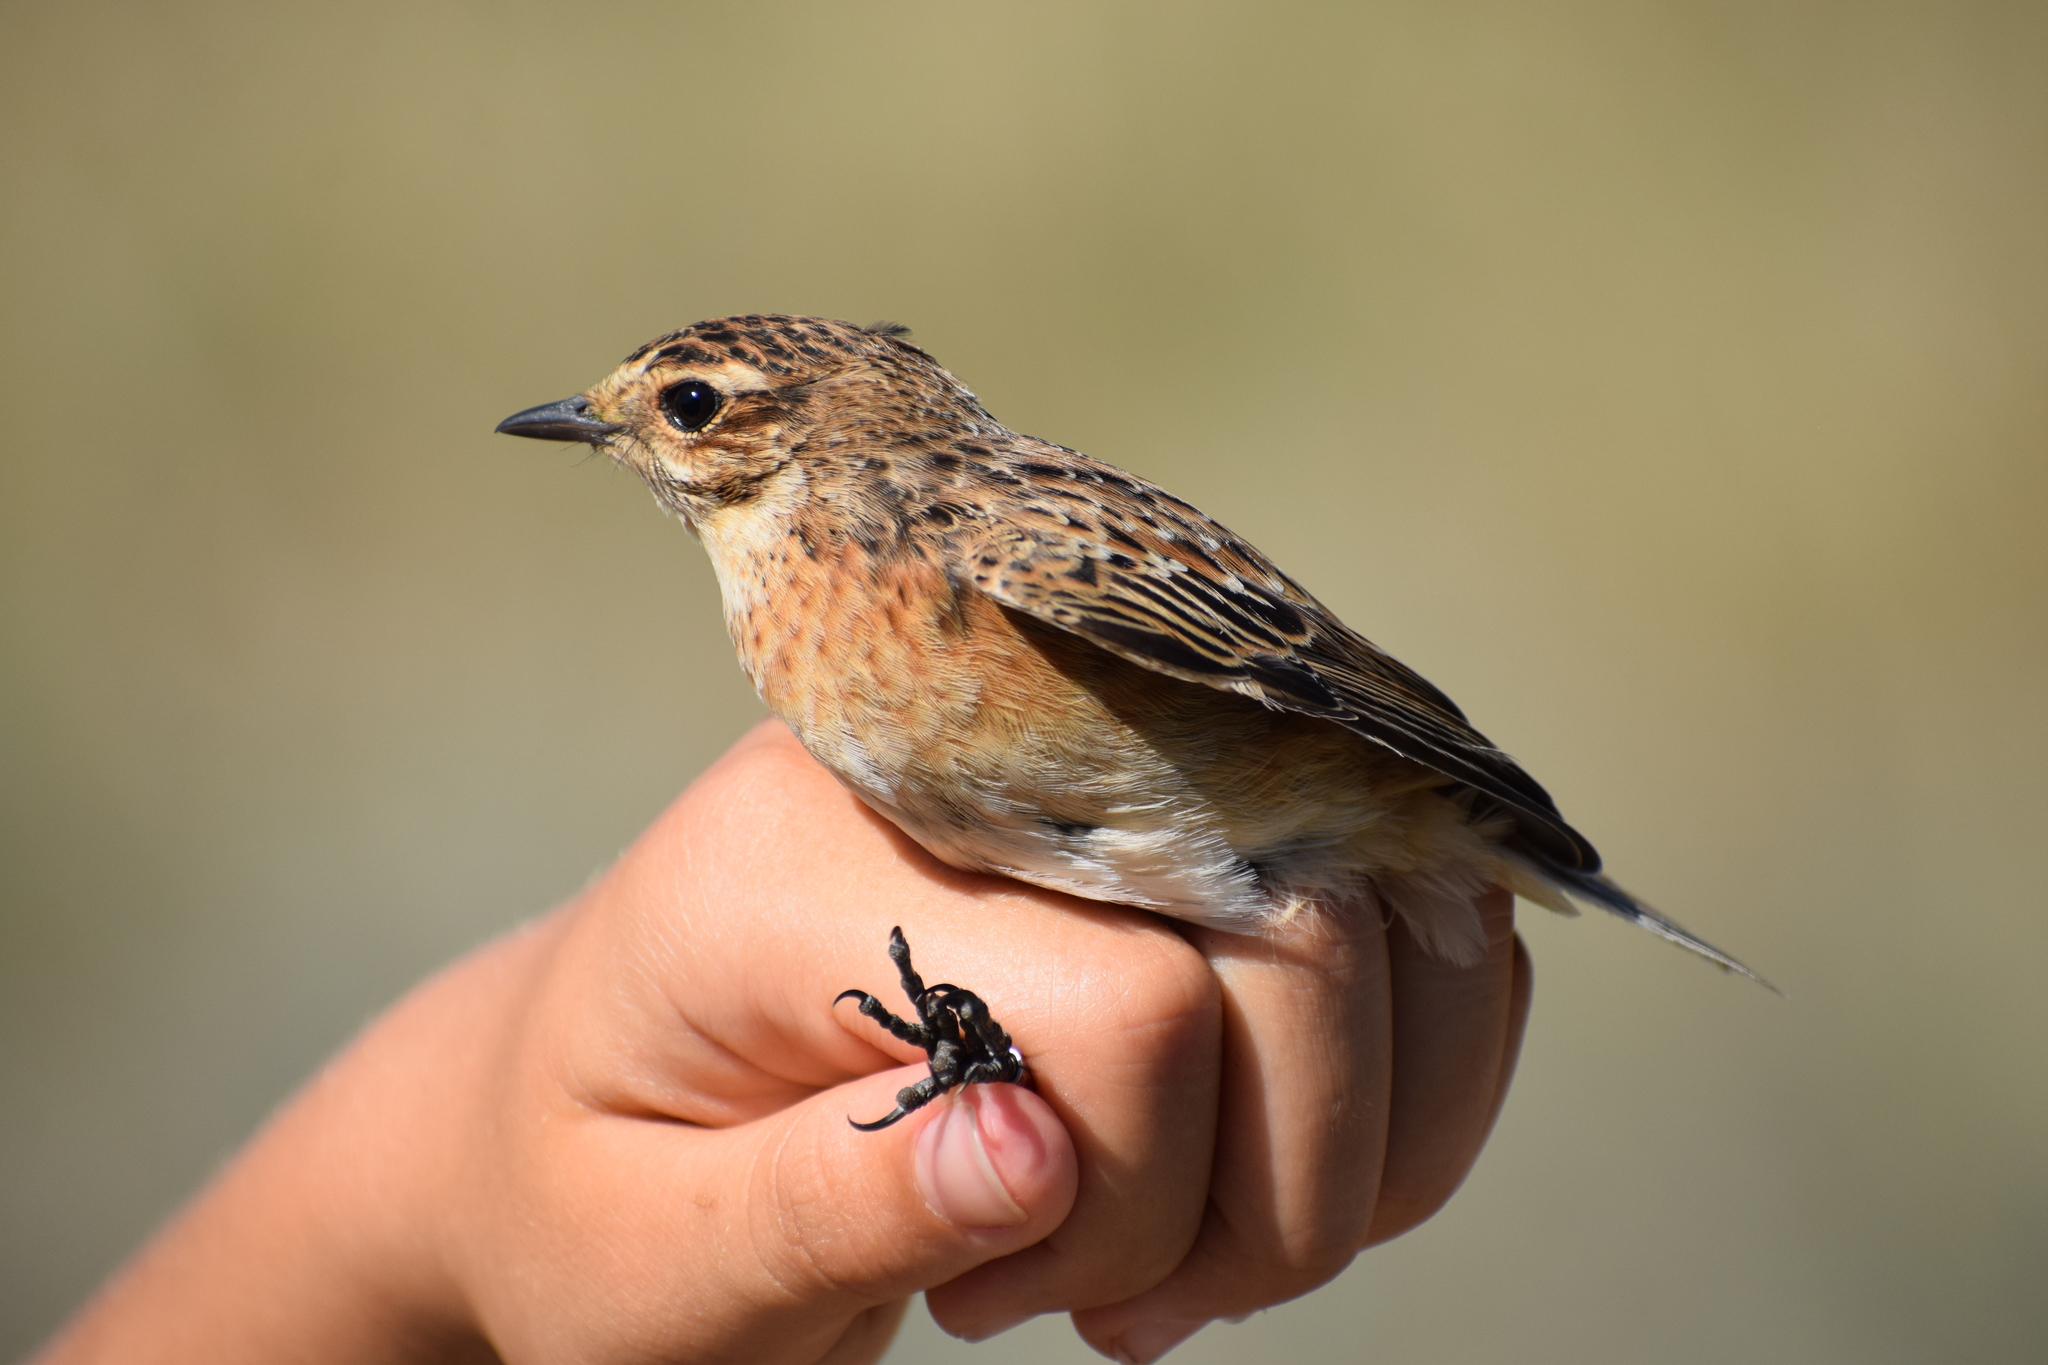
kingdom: Animalia
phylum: Chordata
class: Aves
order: Passeriformes
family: Muscicapidae
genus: Saxicola
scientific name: Saxicola rubetra
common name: Whinchat
